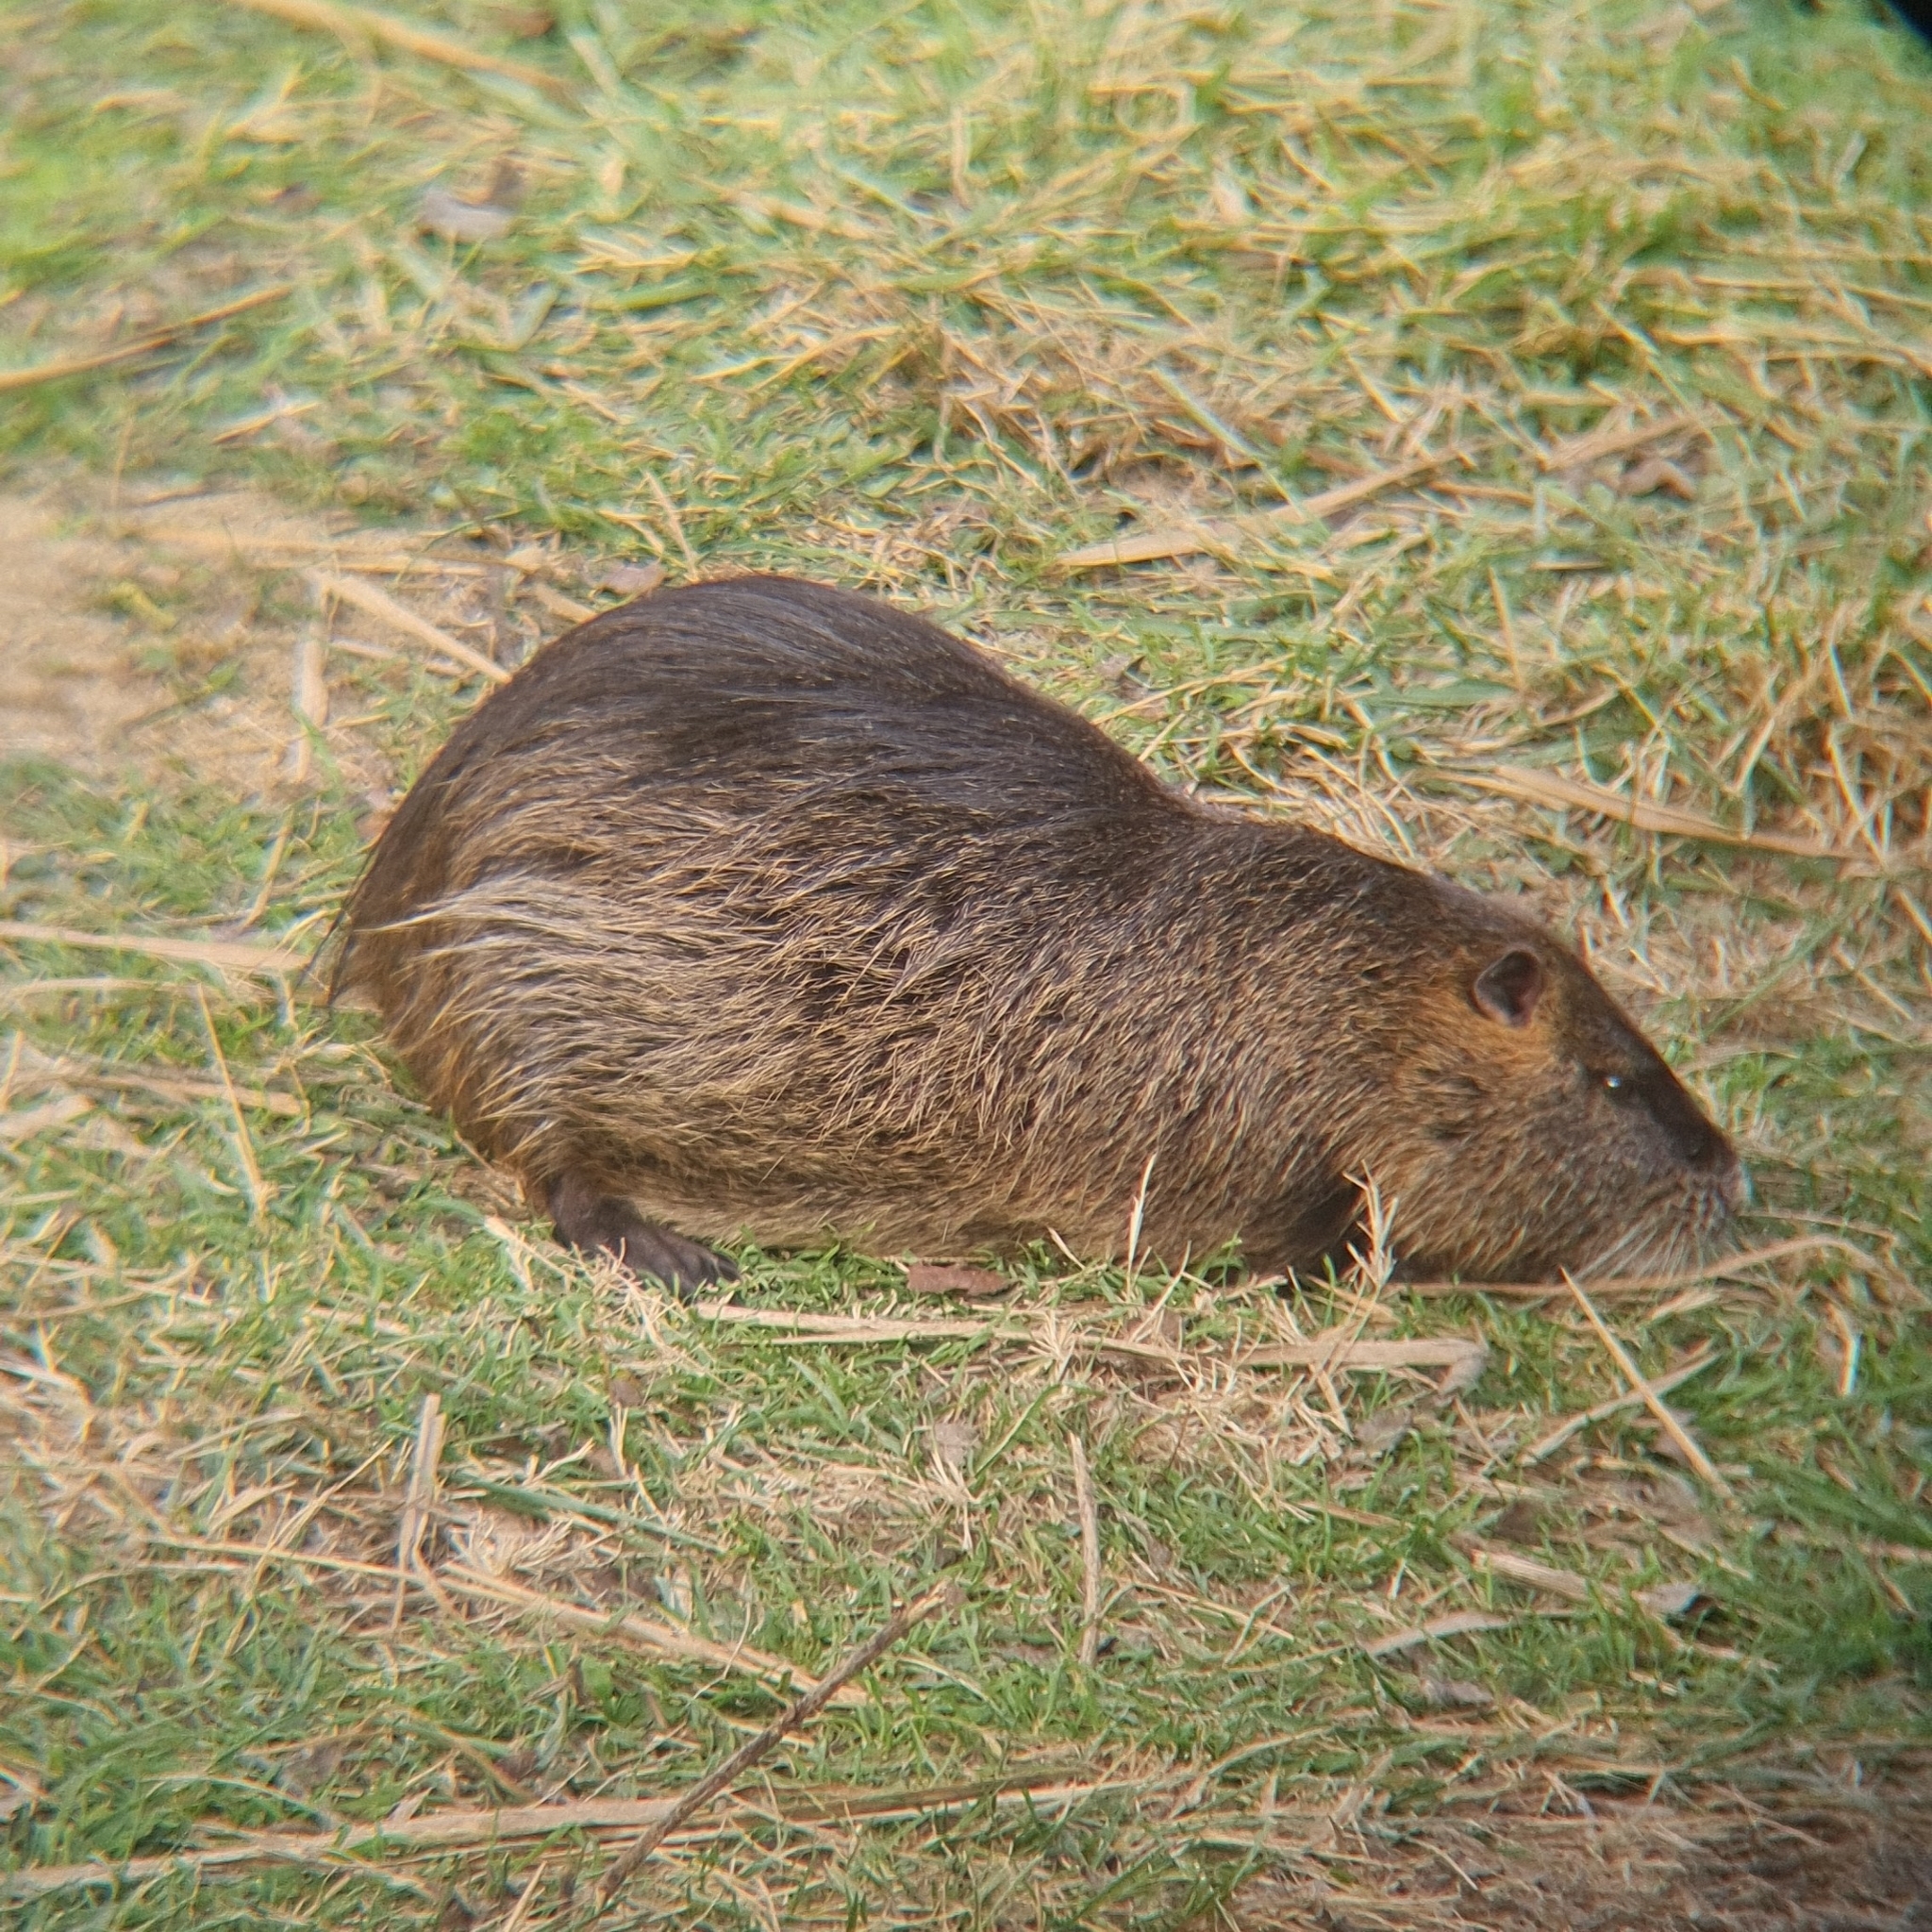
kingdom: Animalia
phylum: Chordata
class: Mammalia
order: Rodentia
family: Myocastoridae
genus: Myocastor
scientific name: Myocastor coypus
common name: Coypu
